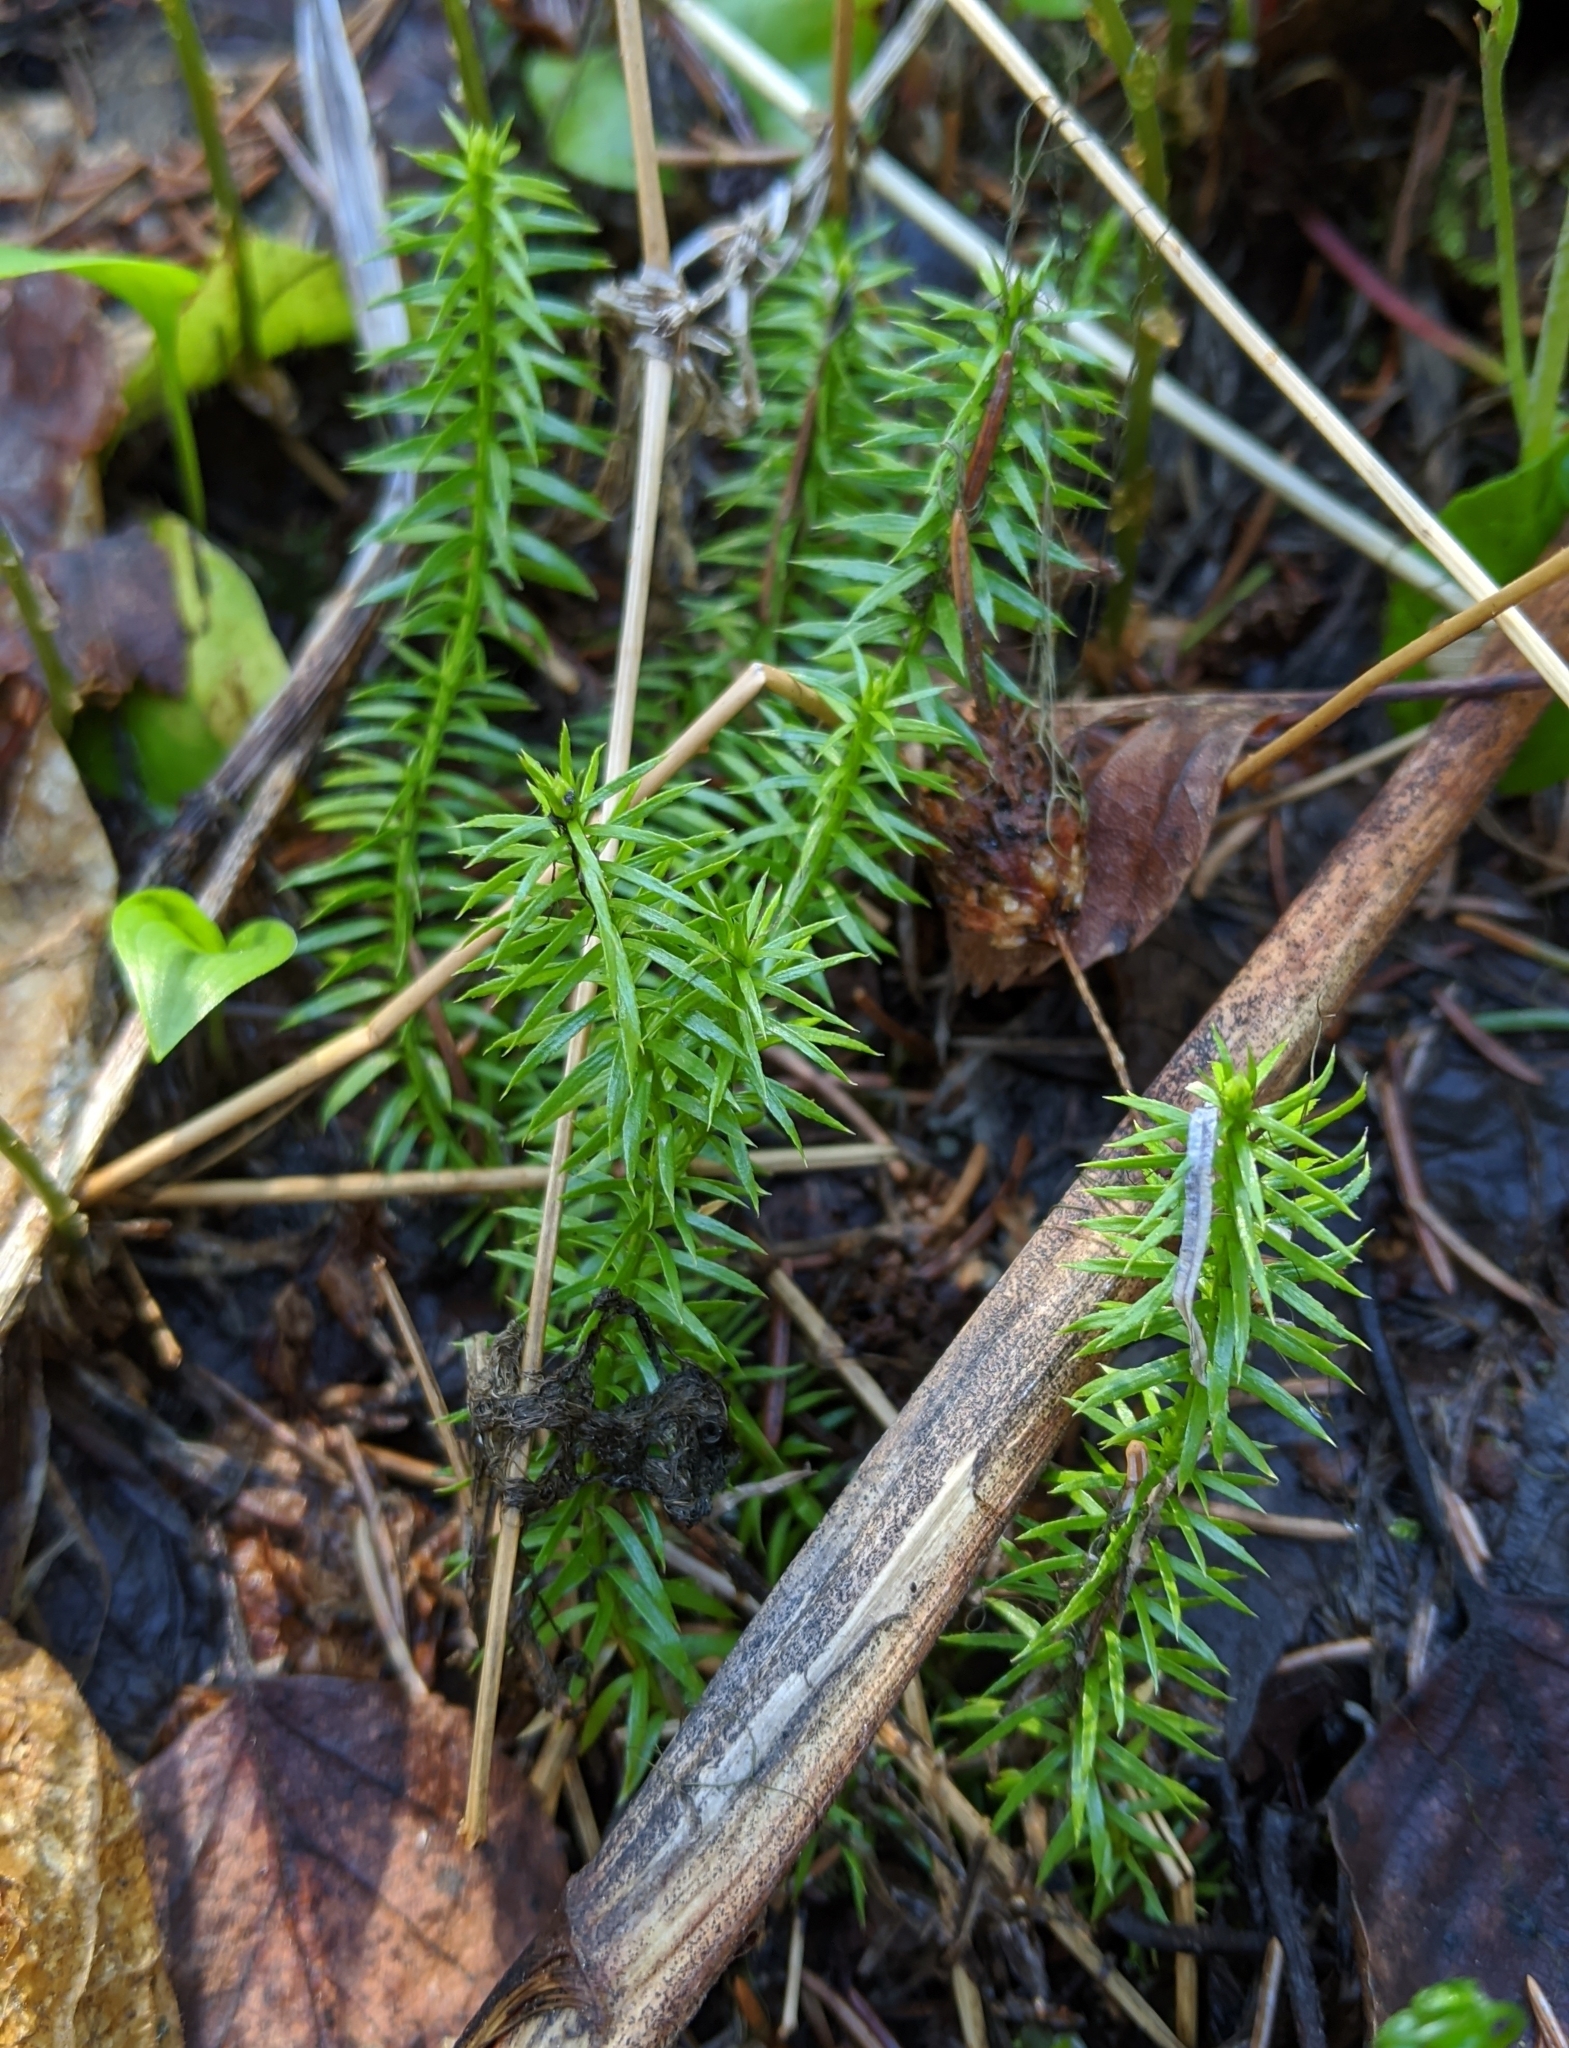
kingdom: Plantae
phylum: Tracheophyta
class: Lycopodiopsida
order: Lycopodiales
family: Lycopodiaceae
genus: Spinulum
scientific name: Spinulum annotinum
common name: Interrupted club-moss
